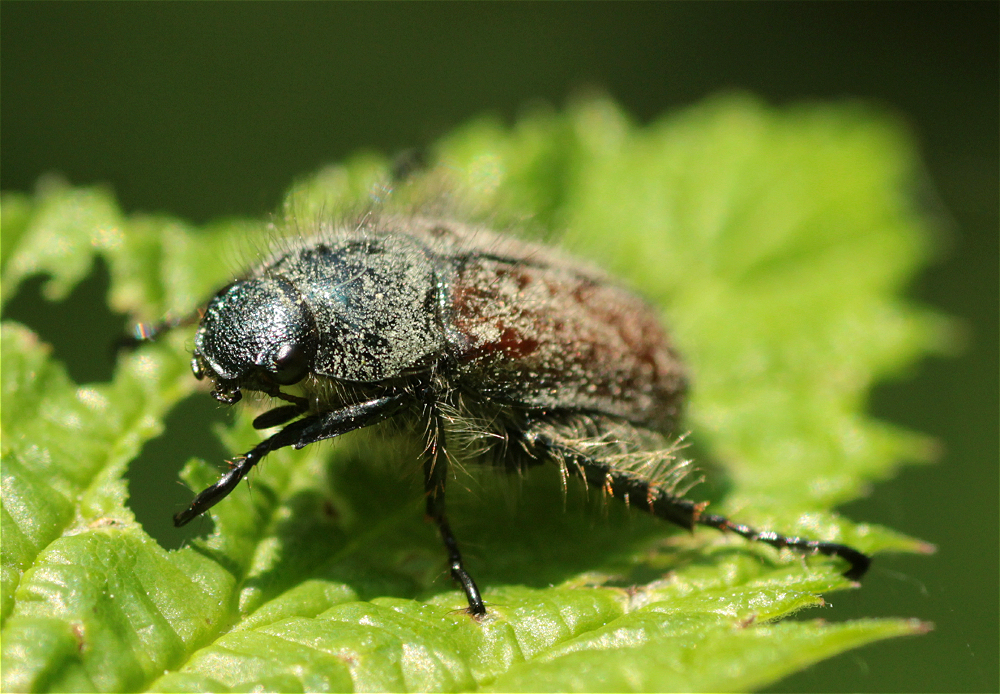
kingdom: Animalia
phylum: Arthropoda
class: Insecta
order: Coleoptera
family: Scarabaeidae
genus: Phyllopertha
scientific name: Phyllopertha horticola
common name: Garden chafer
